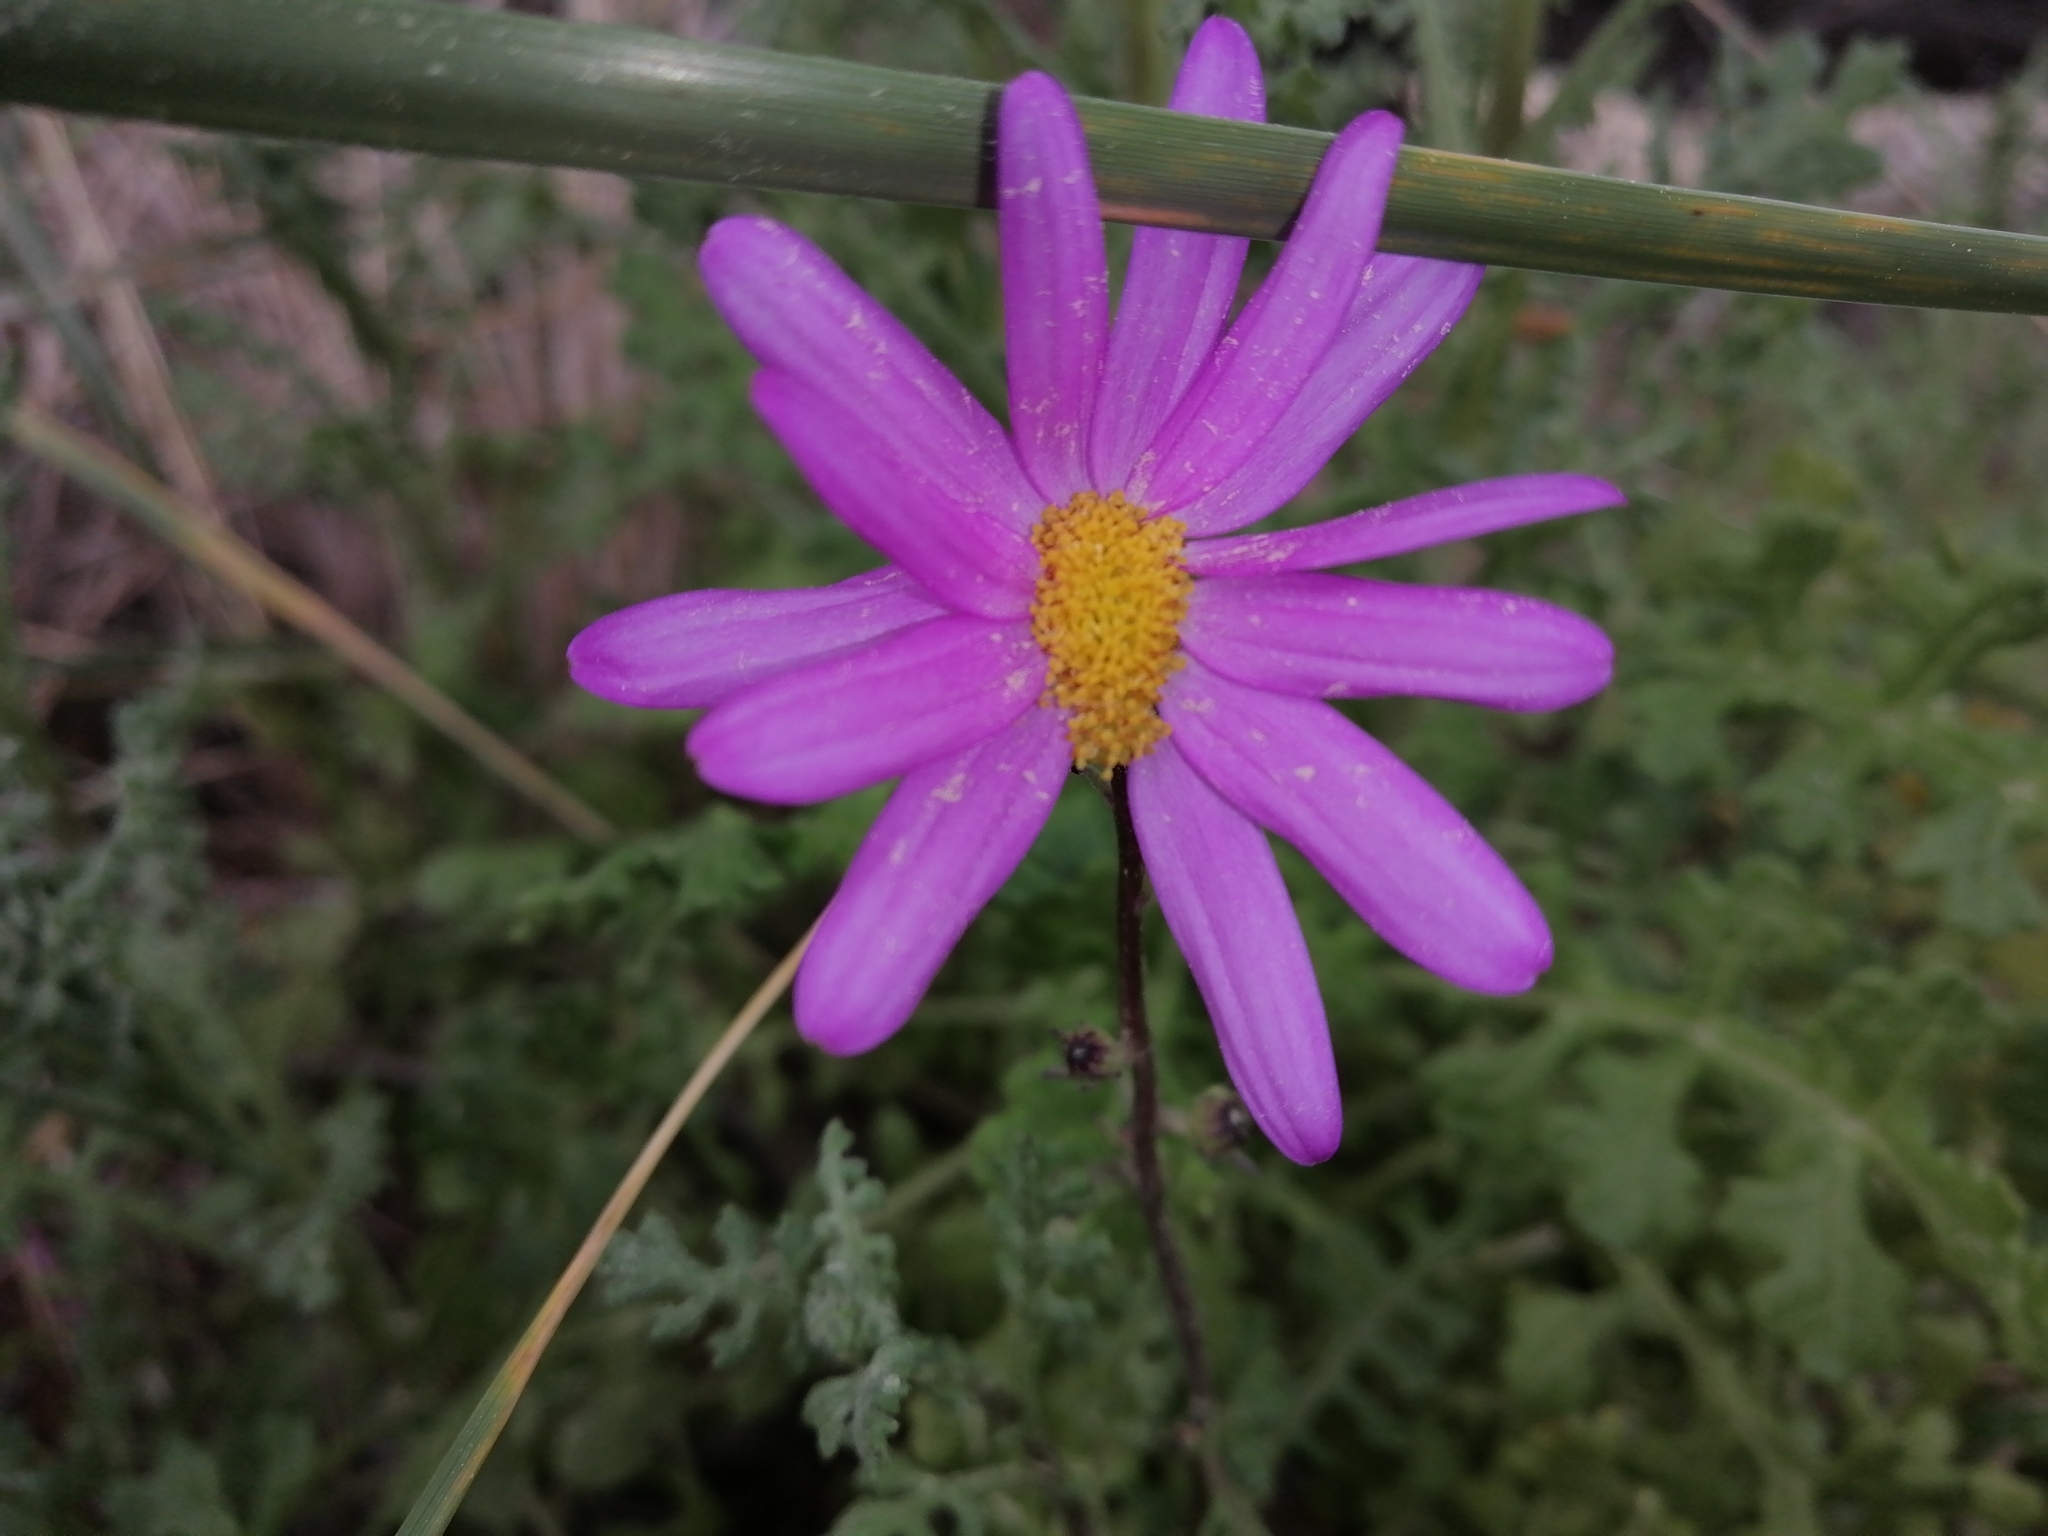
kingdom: Plantae
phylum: Tracheophyta
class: Magnoliopsida
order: Asterales
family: Asteraceae
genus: Senecio
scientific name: Senecio elegans
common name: Purple groundsel
